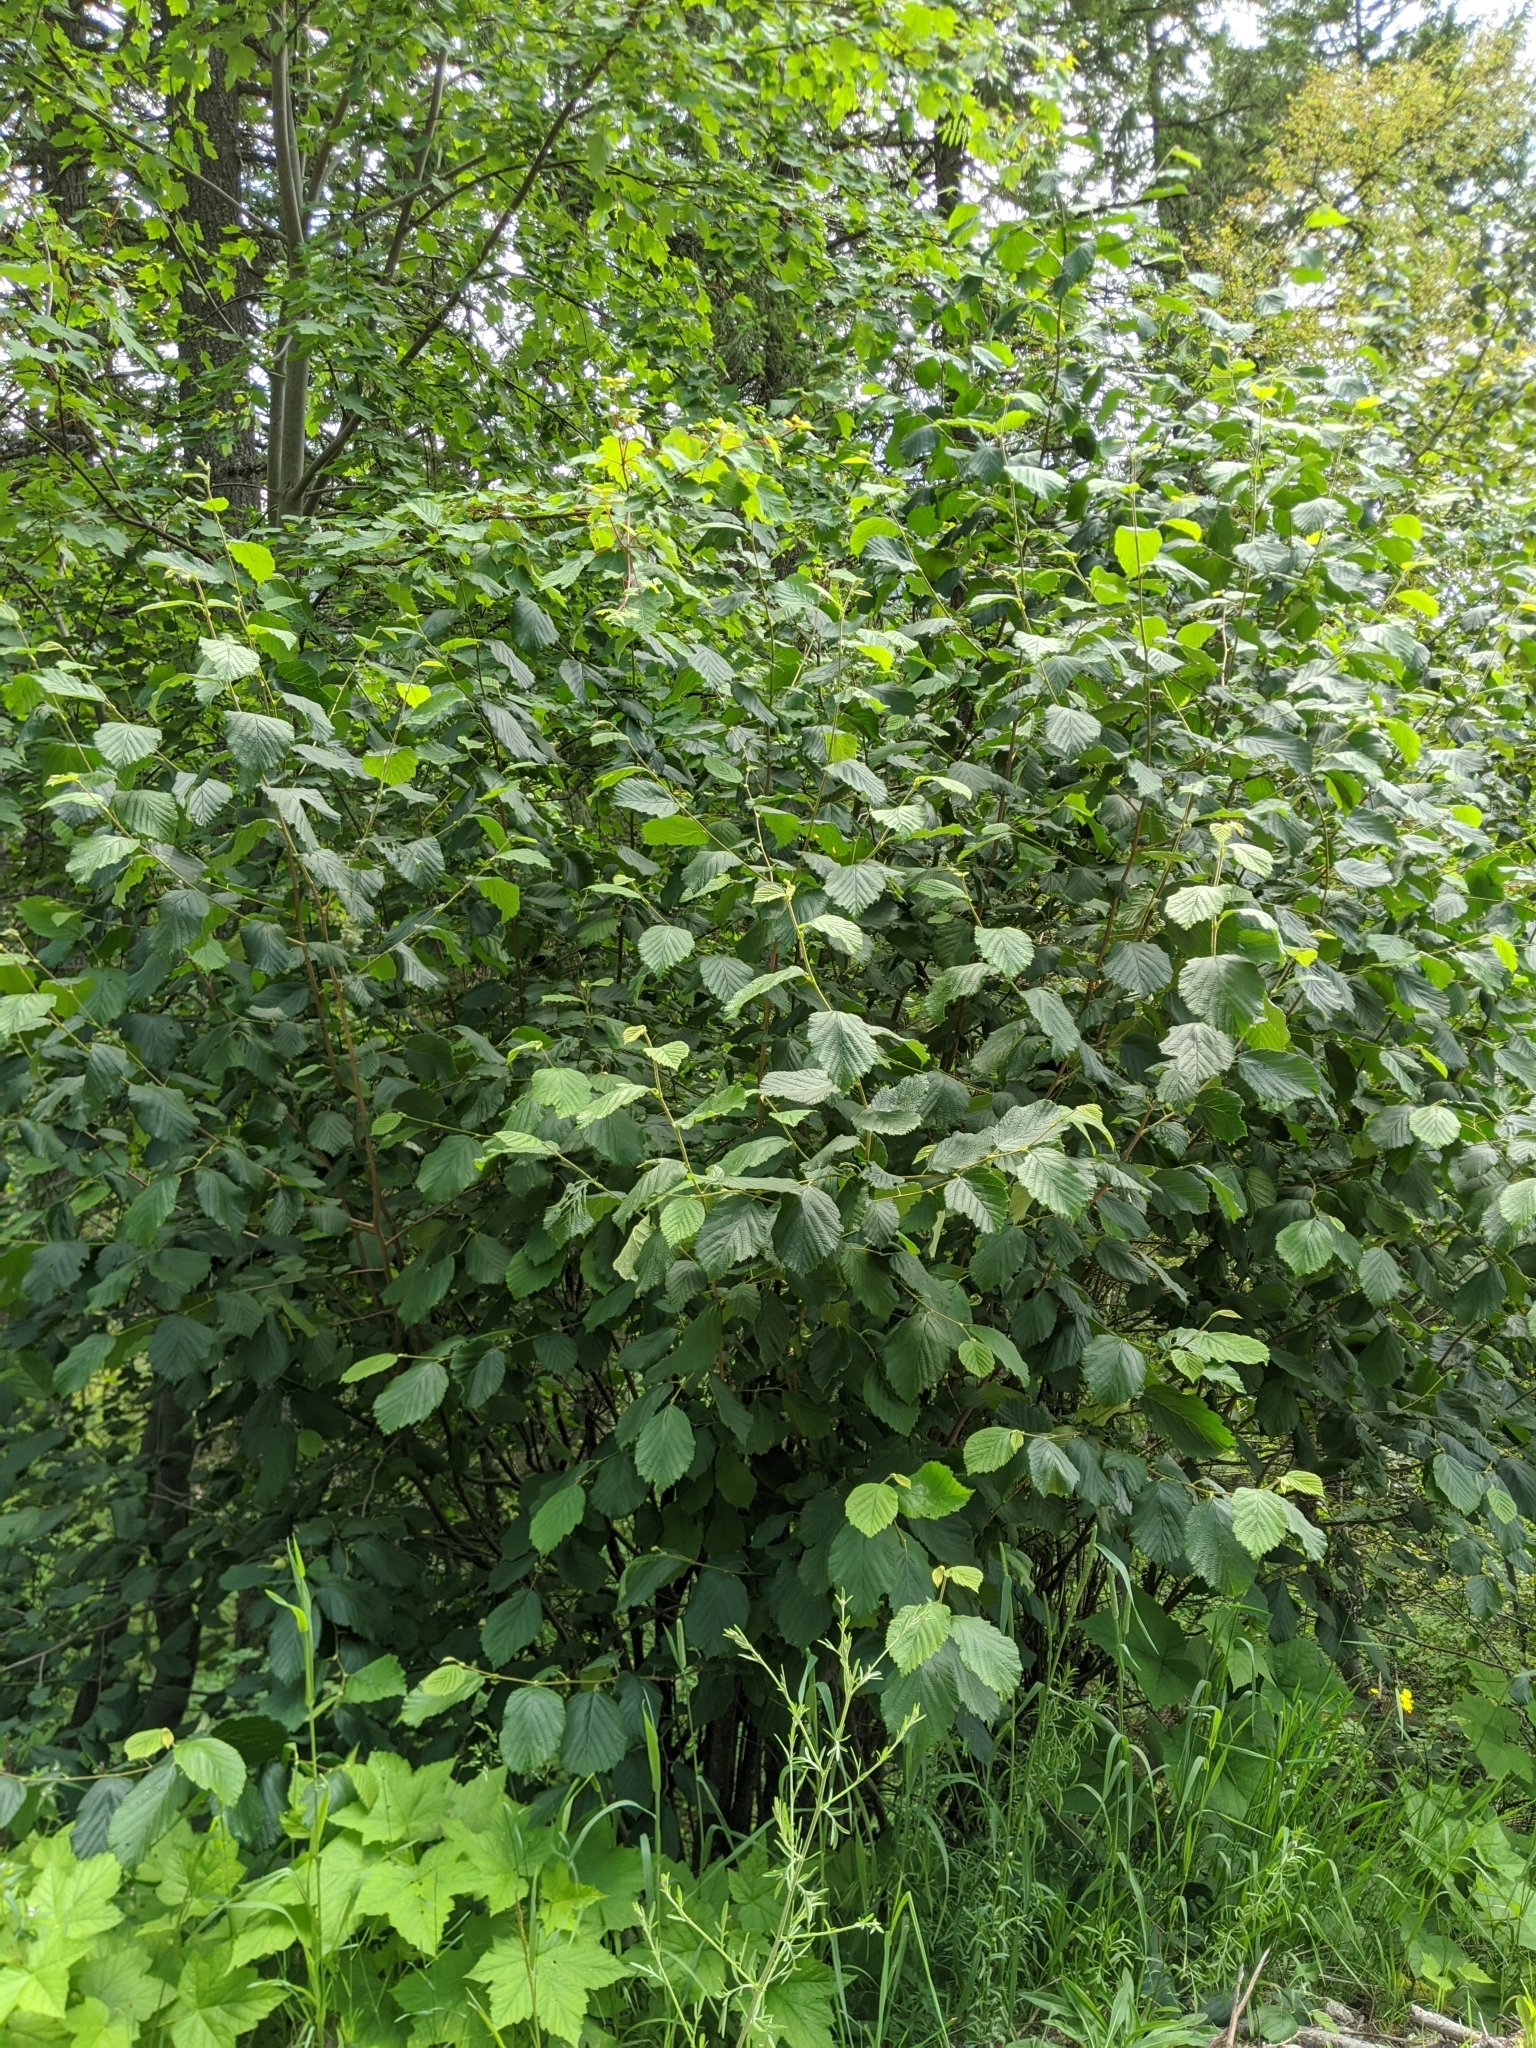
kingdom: Plantae
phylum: Tracheophyta
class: Magnoliopsida
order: Fagales
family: Betulaceae
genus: Corylus
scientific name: Corylus cornuta
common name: Beaked hazel
